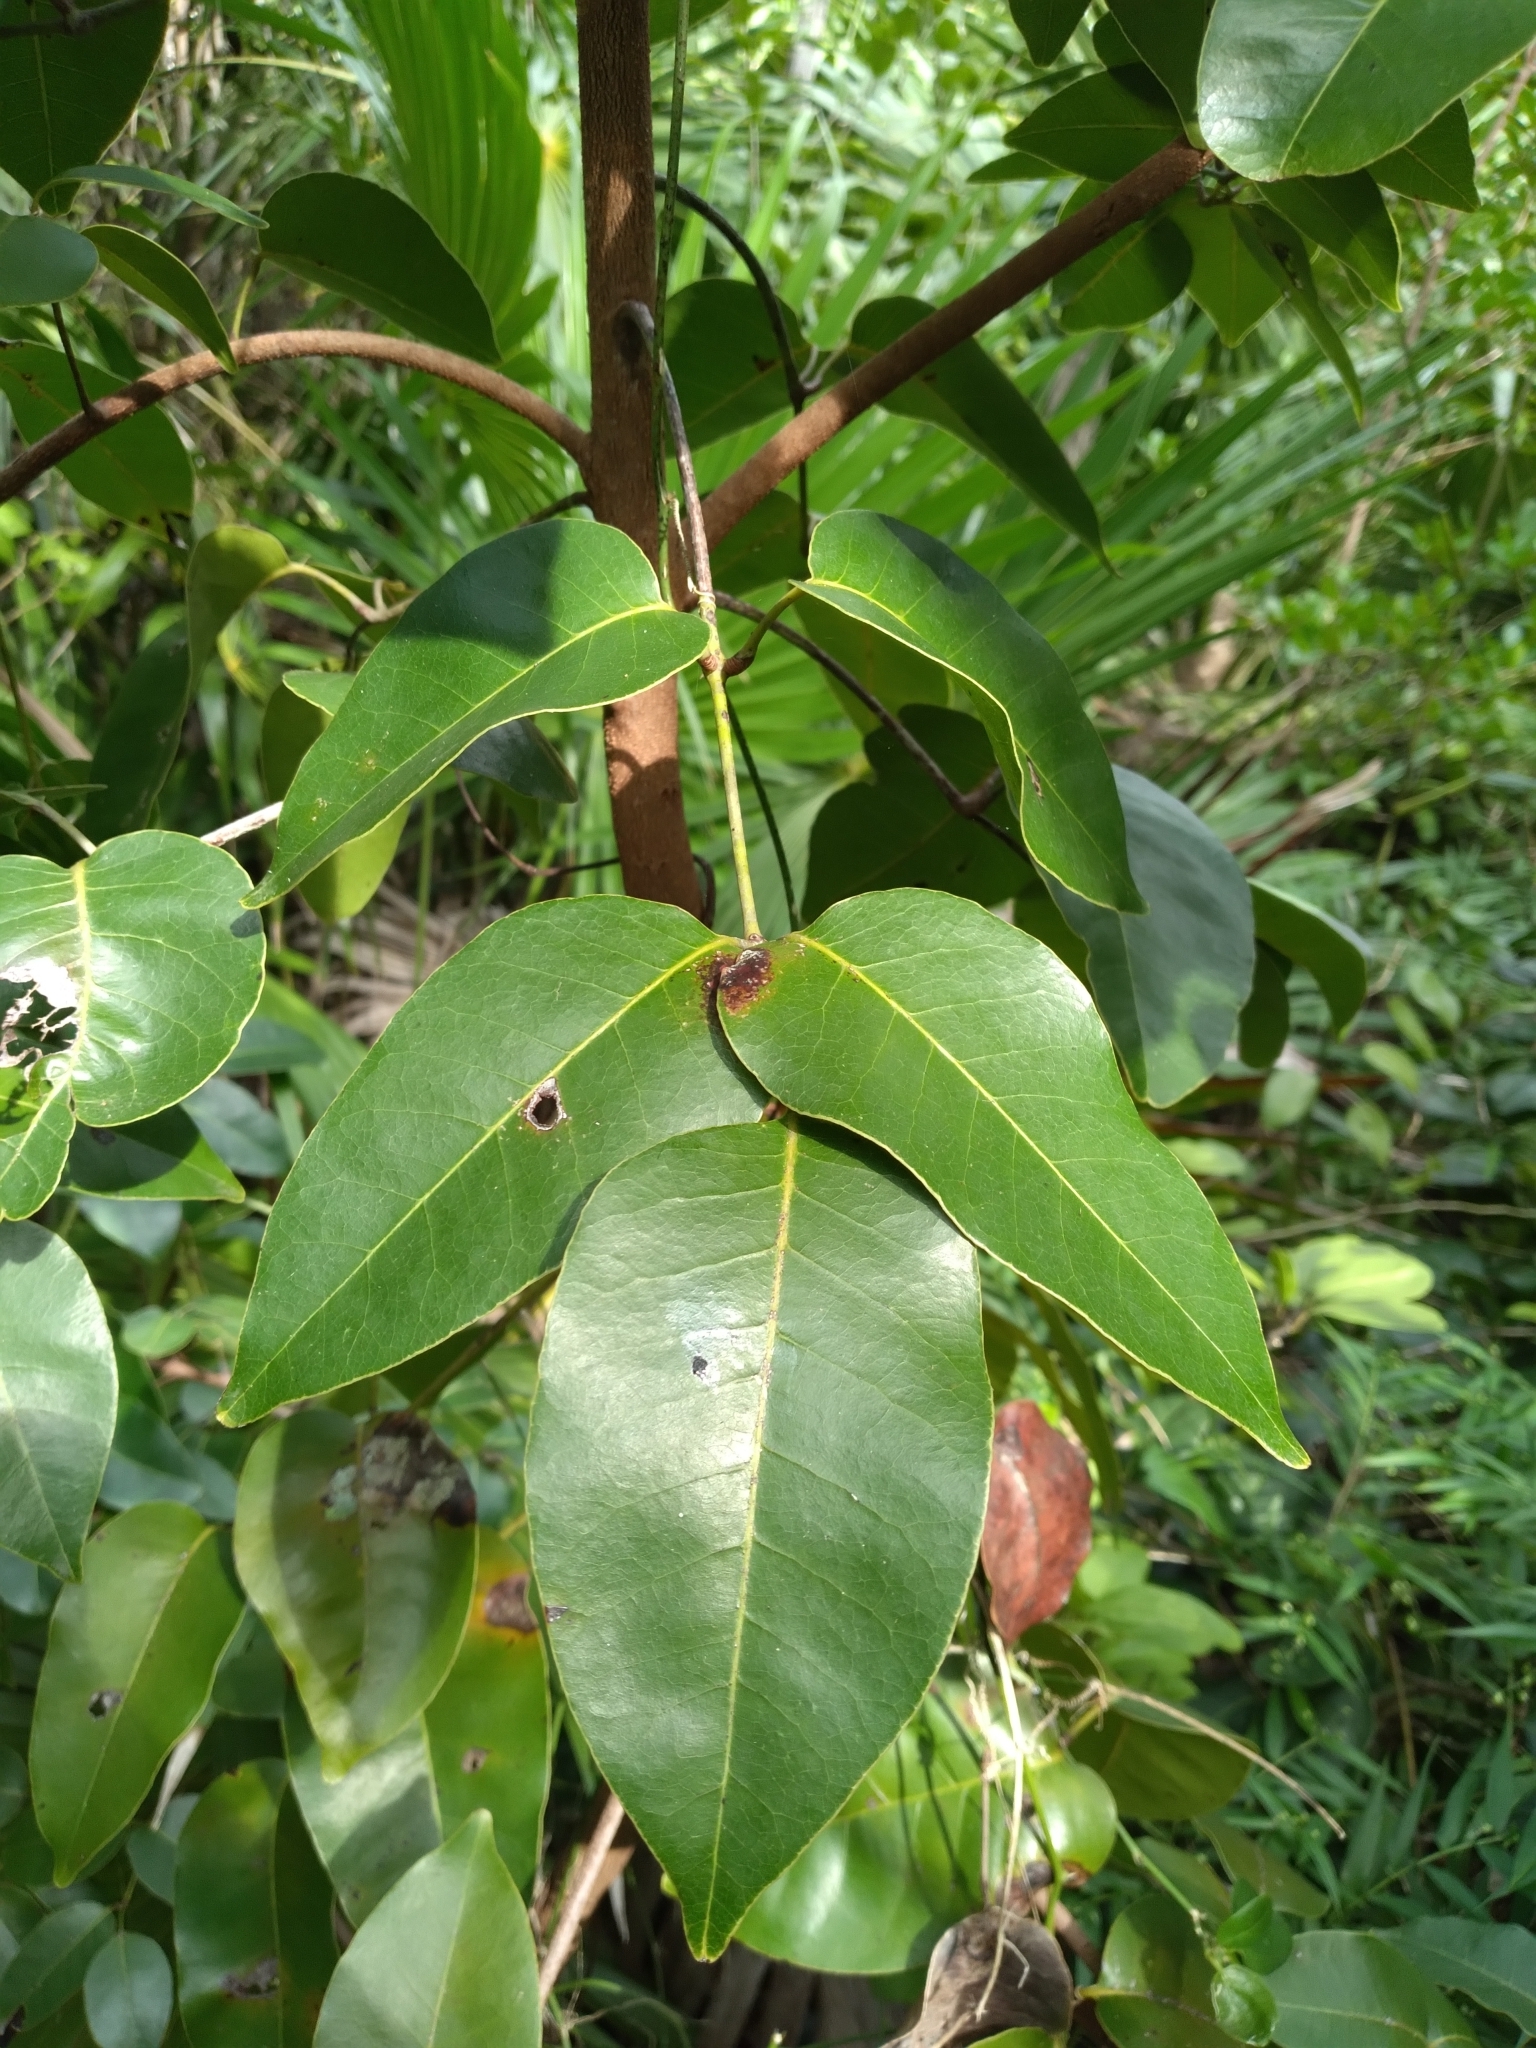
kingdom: Plantae
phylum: Tracheophyta
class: Magnoliopsida
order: Sapindales
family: Anacardiaceae
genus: Metopium
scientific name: Metopium toxiferum
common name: Florida poisontree
